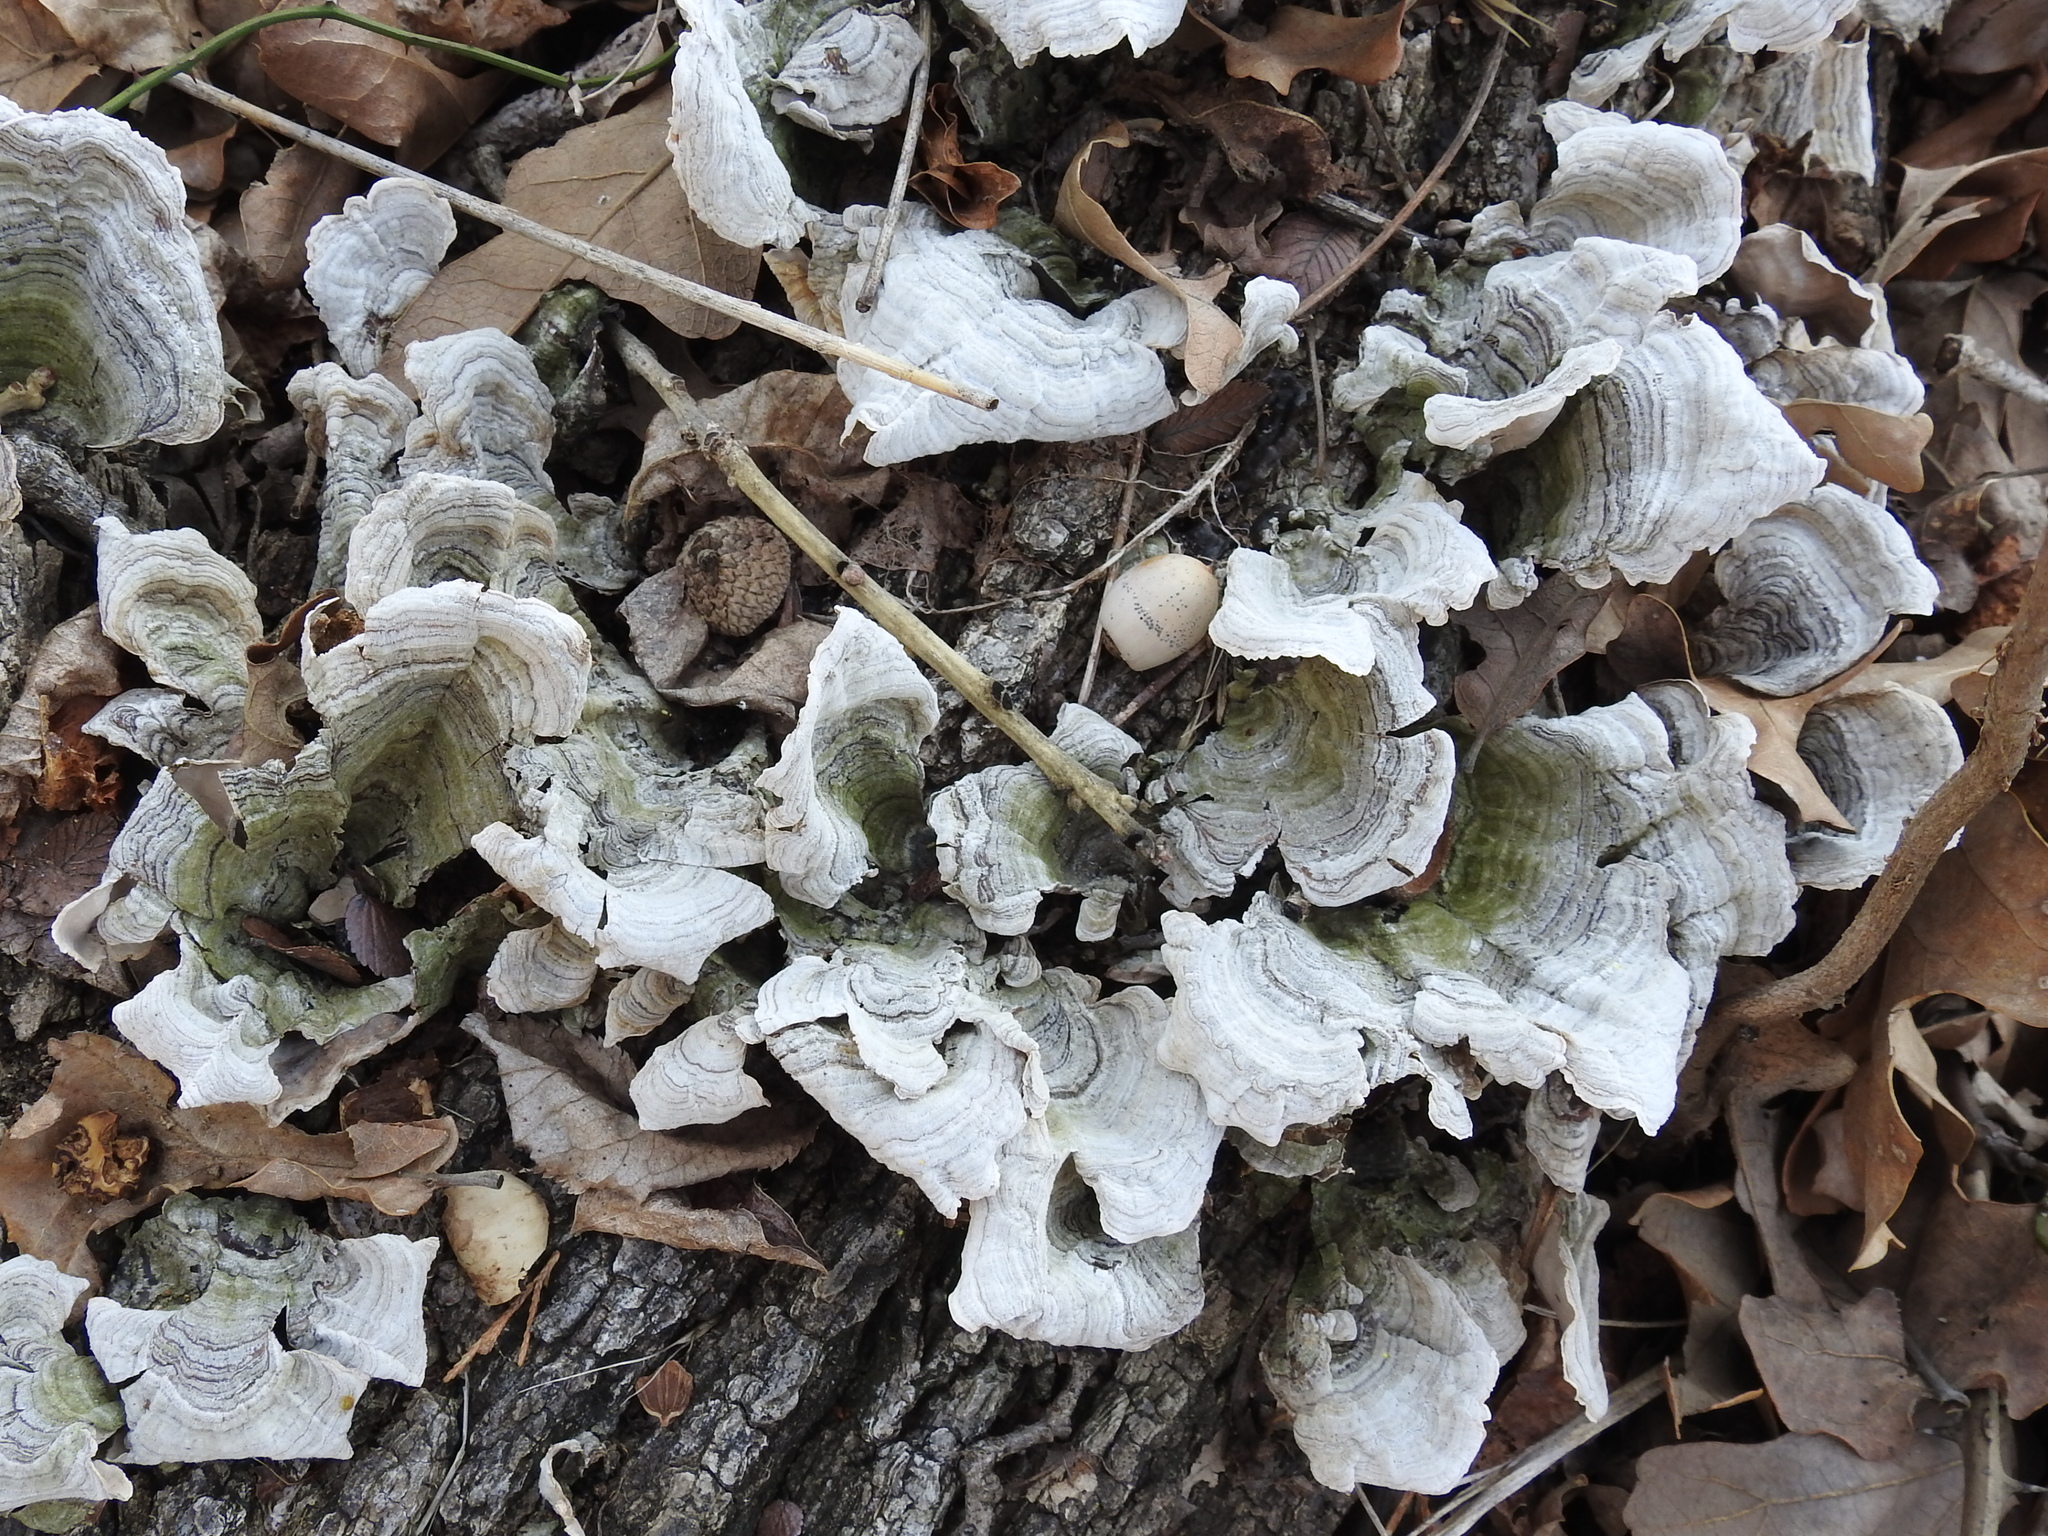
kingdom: Fungi
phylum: Basidiomycota
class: Agaricomycetes
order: Russulales
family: Stereaceae
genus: Stereum
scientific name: Stereum ostrea
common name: False turkeytail
